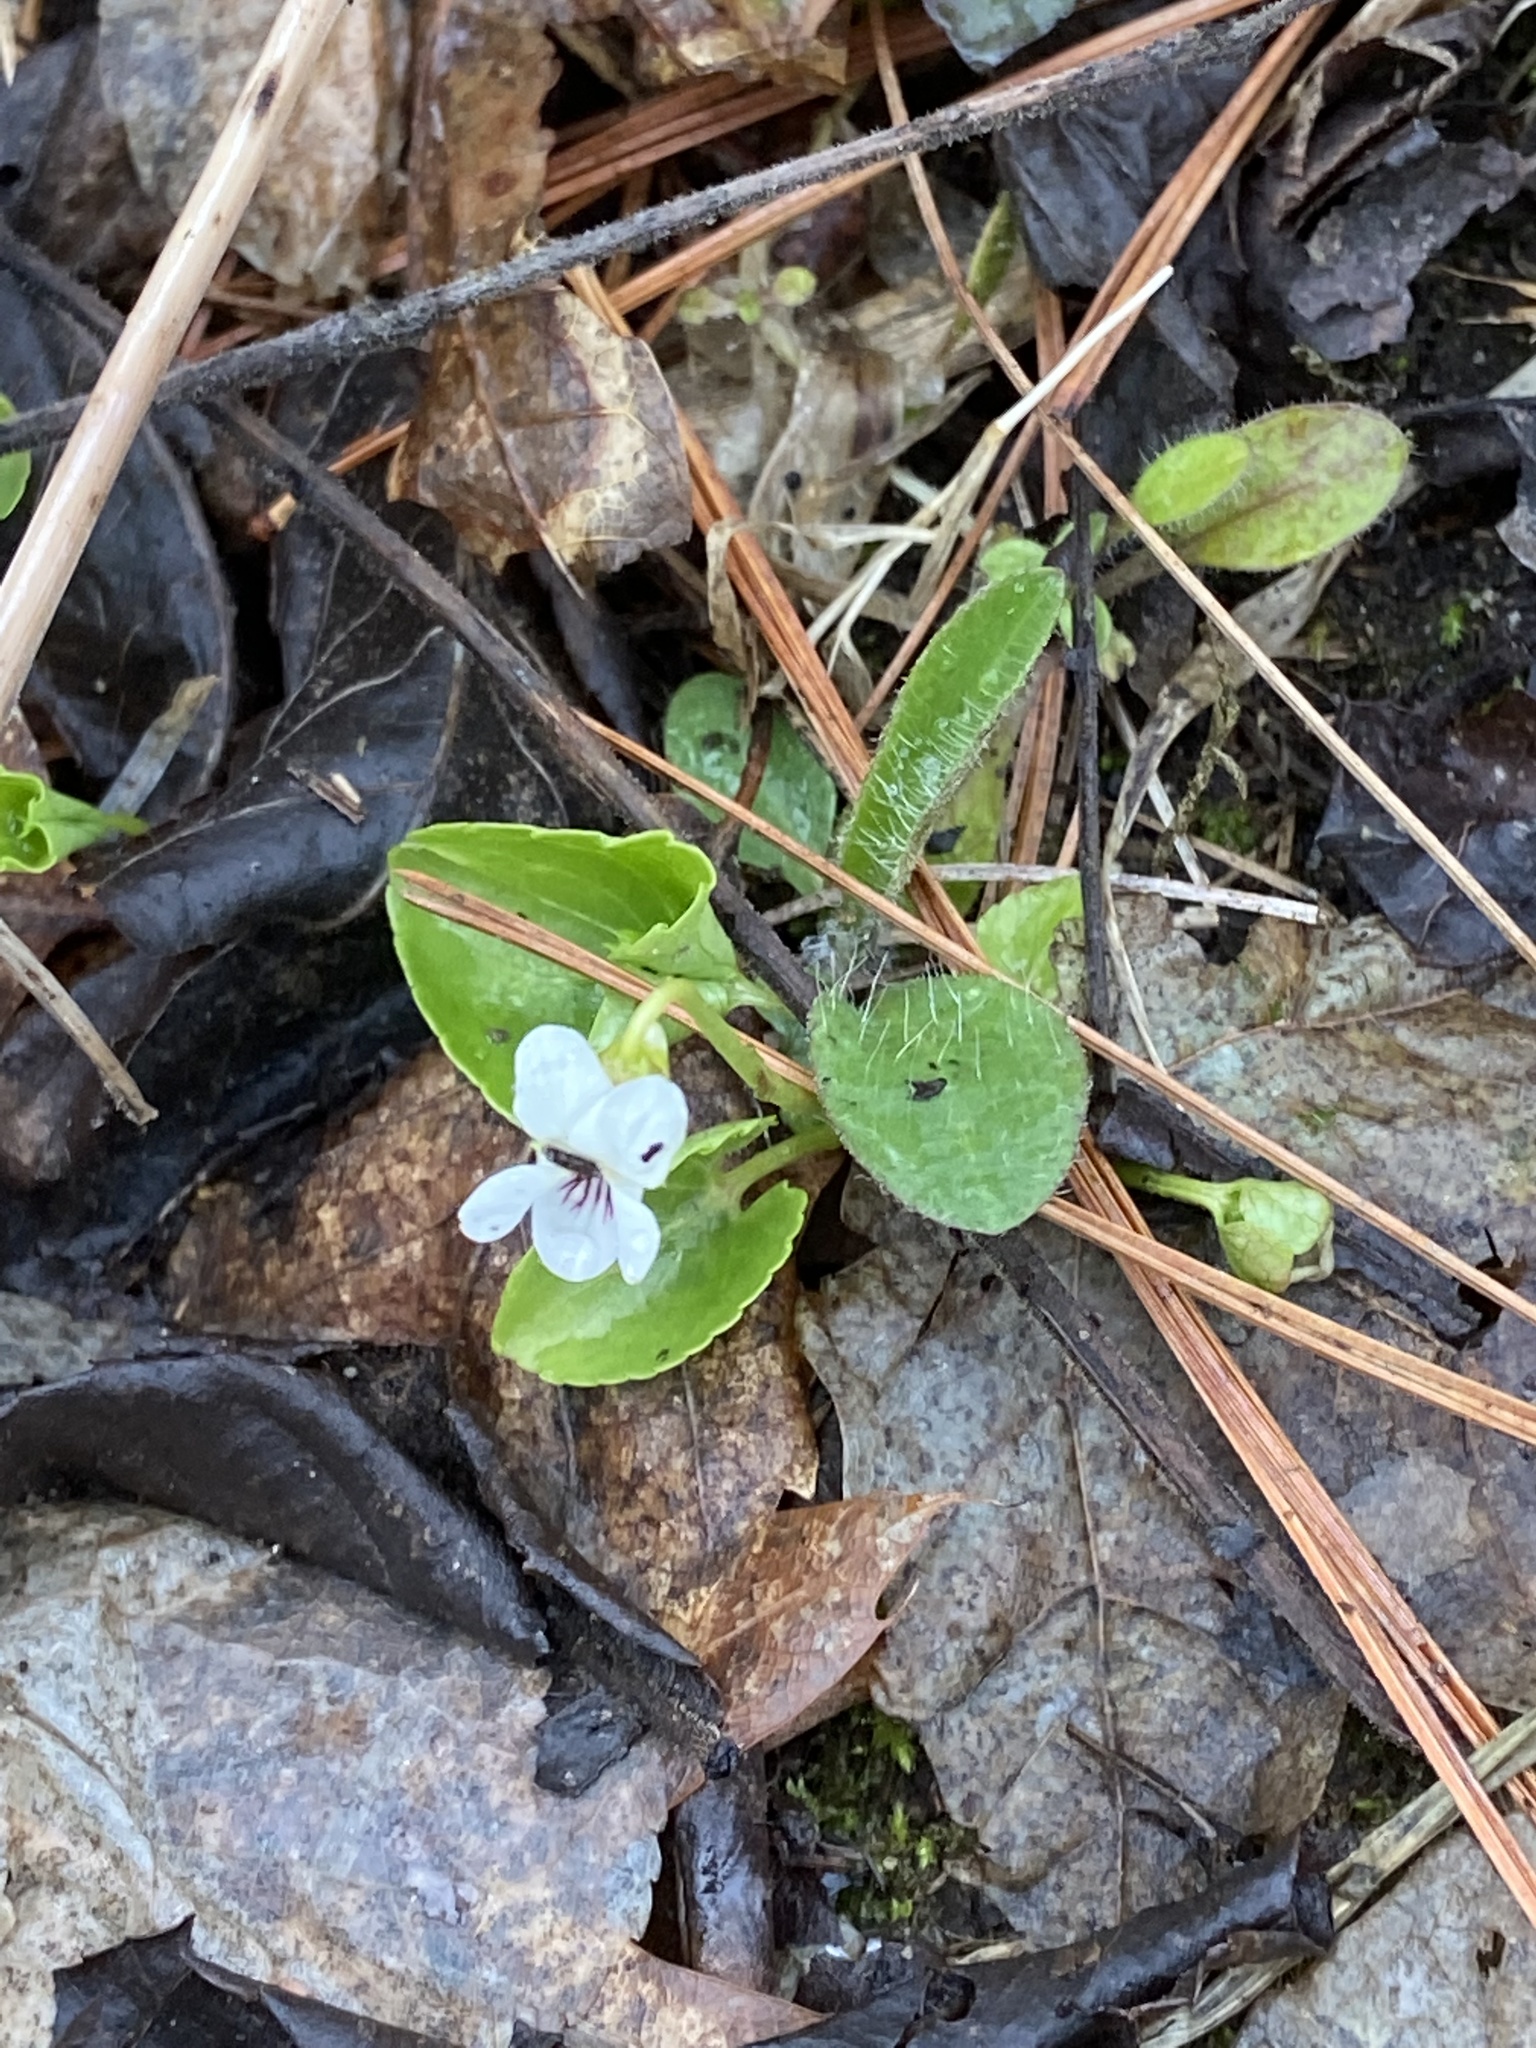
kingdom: Plantae
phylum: Tracheophyta
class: Magnoliopsida
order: Malpighiales
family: Violaceae
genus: Viola
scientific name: Viola minuscula
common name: Northern white violet
